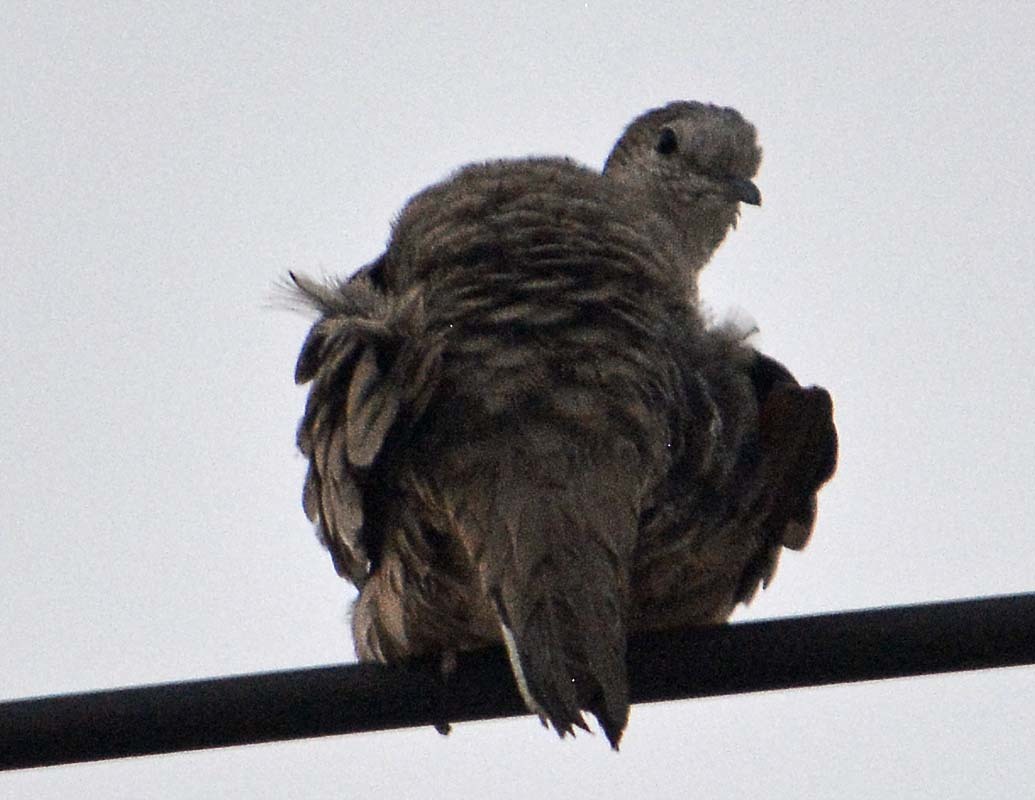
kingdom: Animalia
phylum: Chordata
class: Aves
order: Columbiformes
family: Columbidae
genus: Columbina
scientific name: Columbina inca
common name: Inca dove
